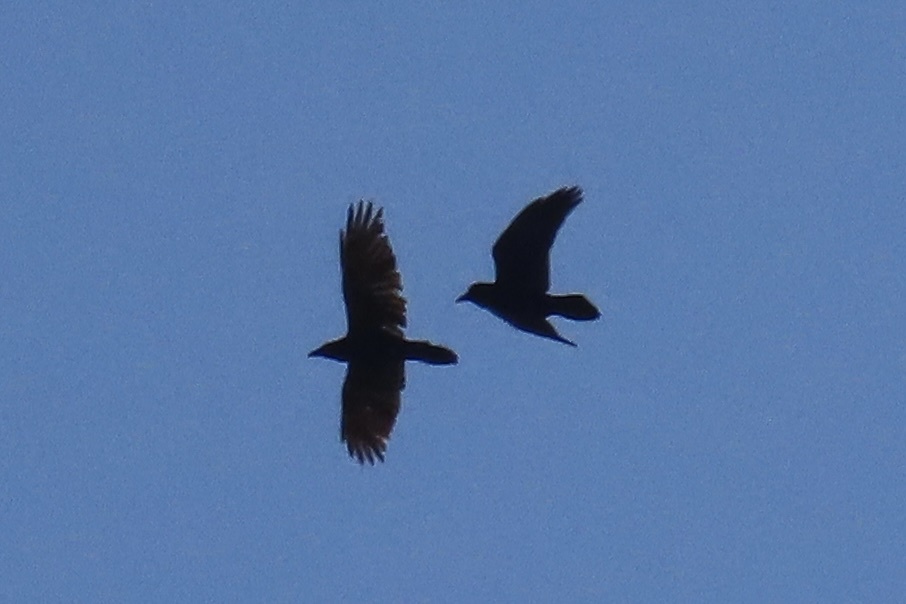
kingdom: Animalia
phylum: Chordata
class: Aves
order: Passeriformes
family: Corvidae
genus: Corvus
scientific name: Corvus corax
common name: Common raven
